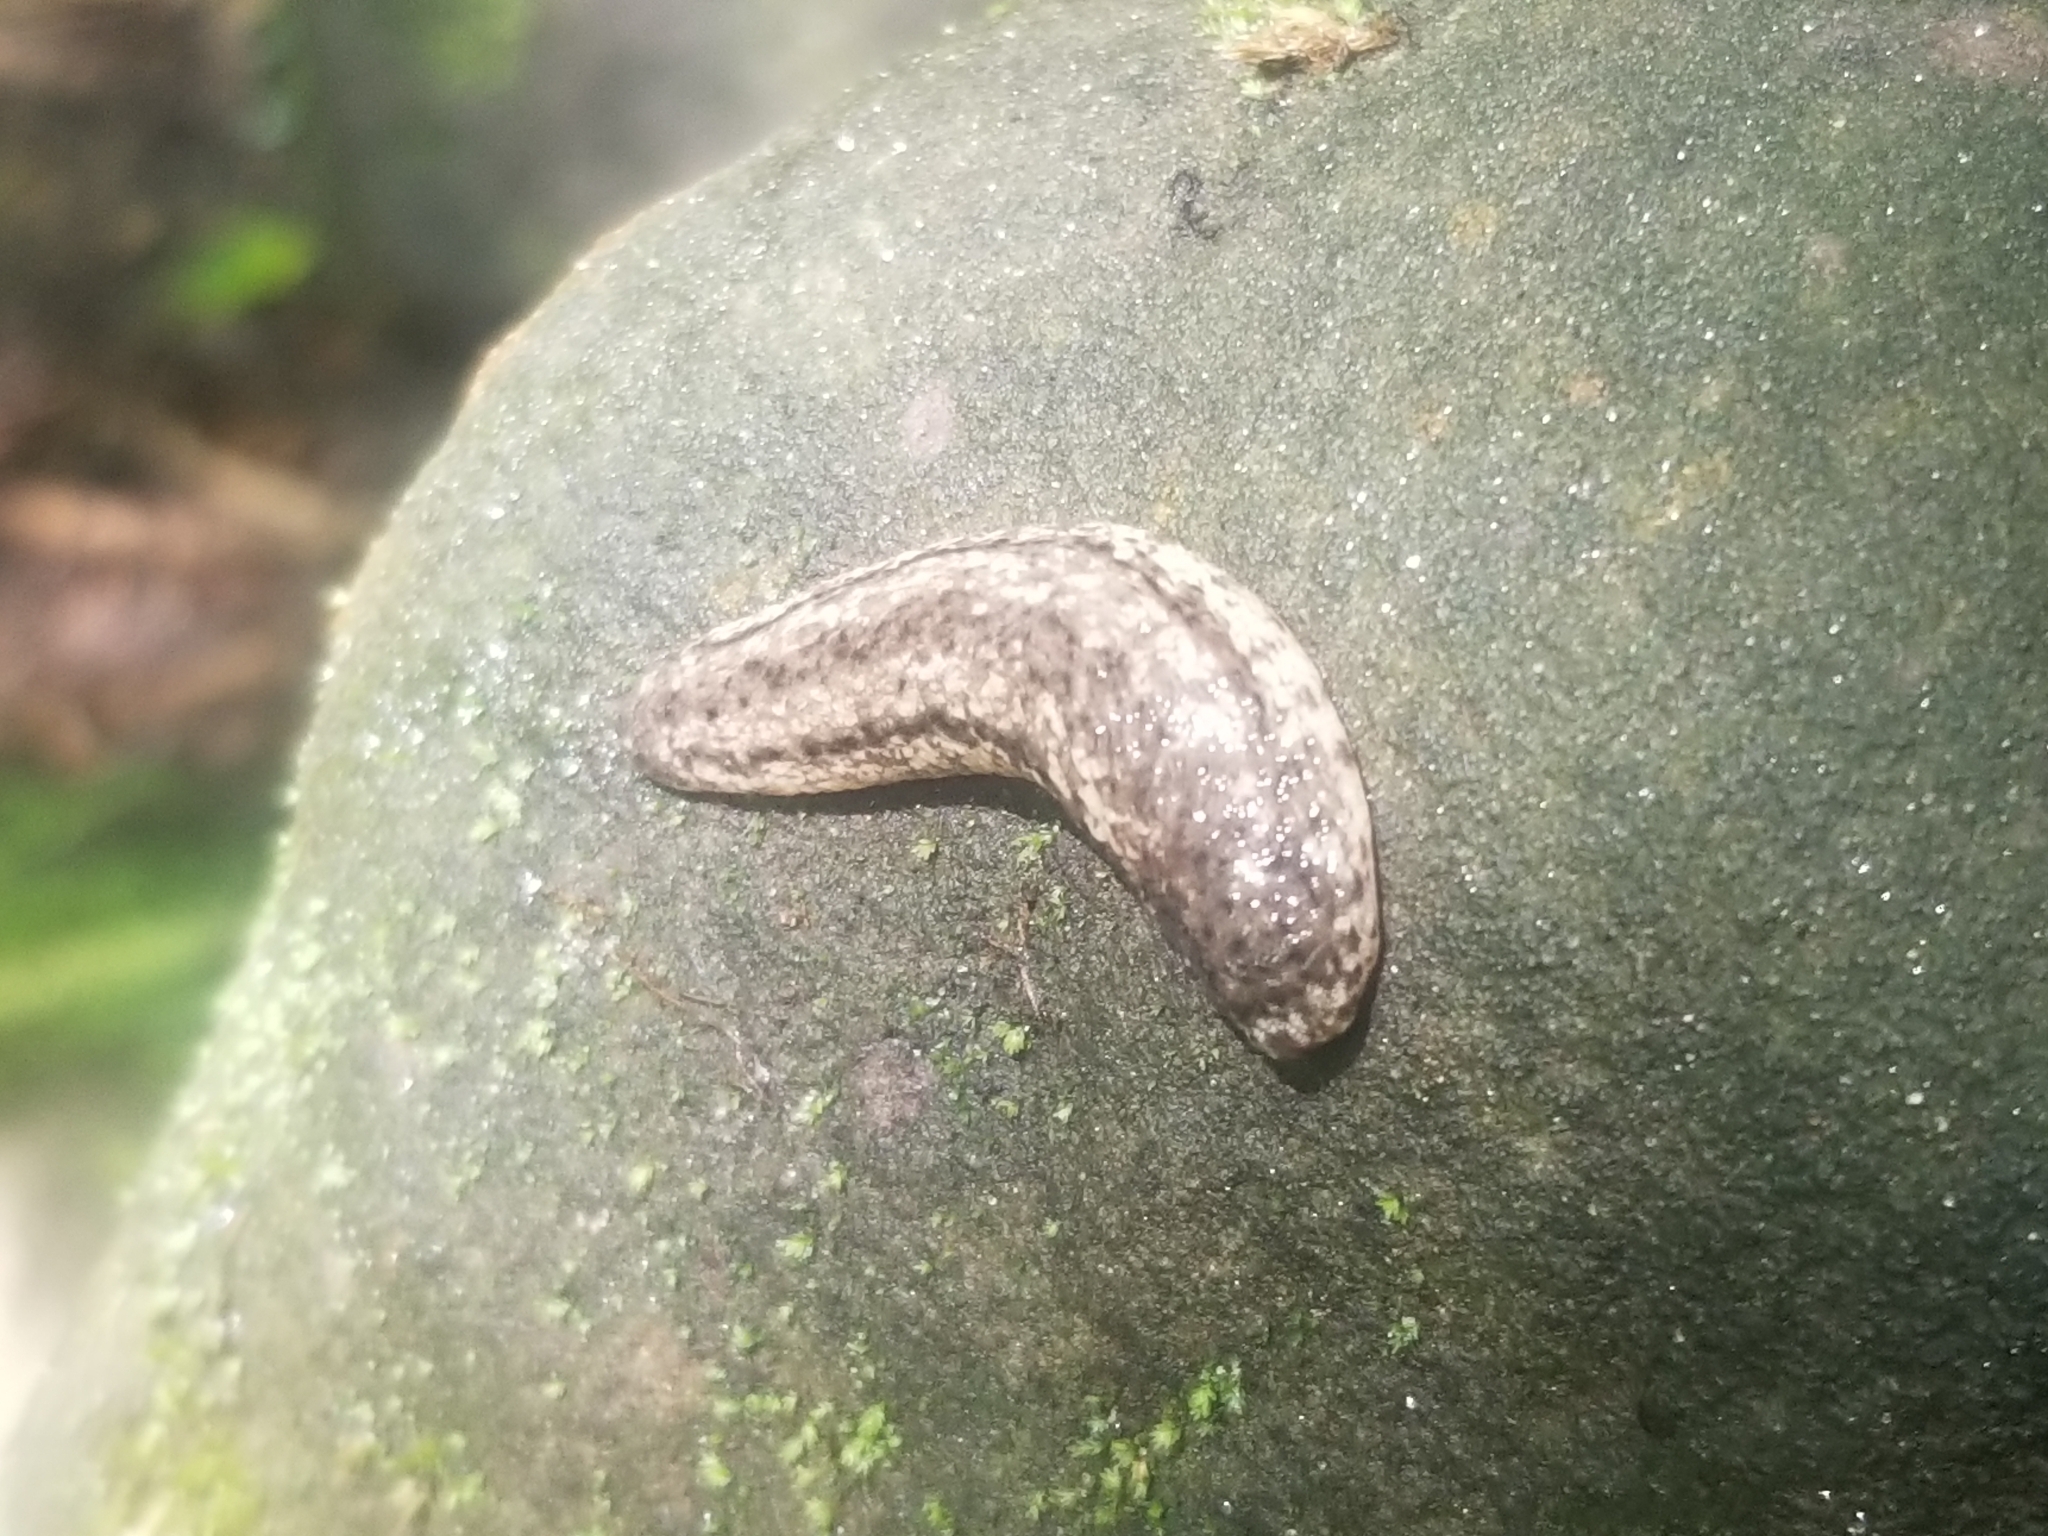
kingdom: Animalia
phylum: Mollusca
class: Gastropoda
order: Stylommatophora
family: Philomycidae
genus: Philomycus
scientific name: Philomycus togatus
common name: Toga mantleslug
